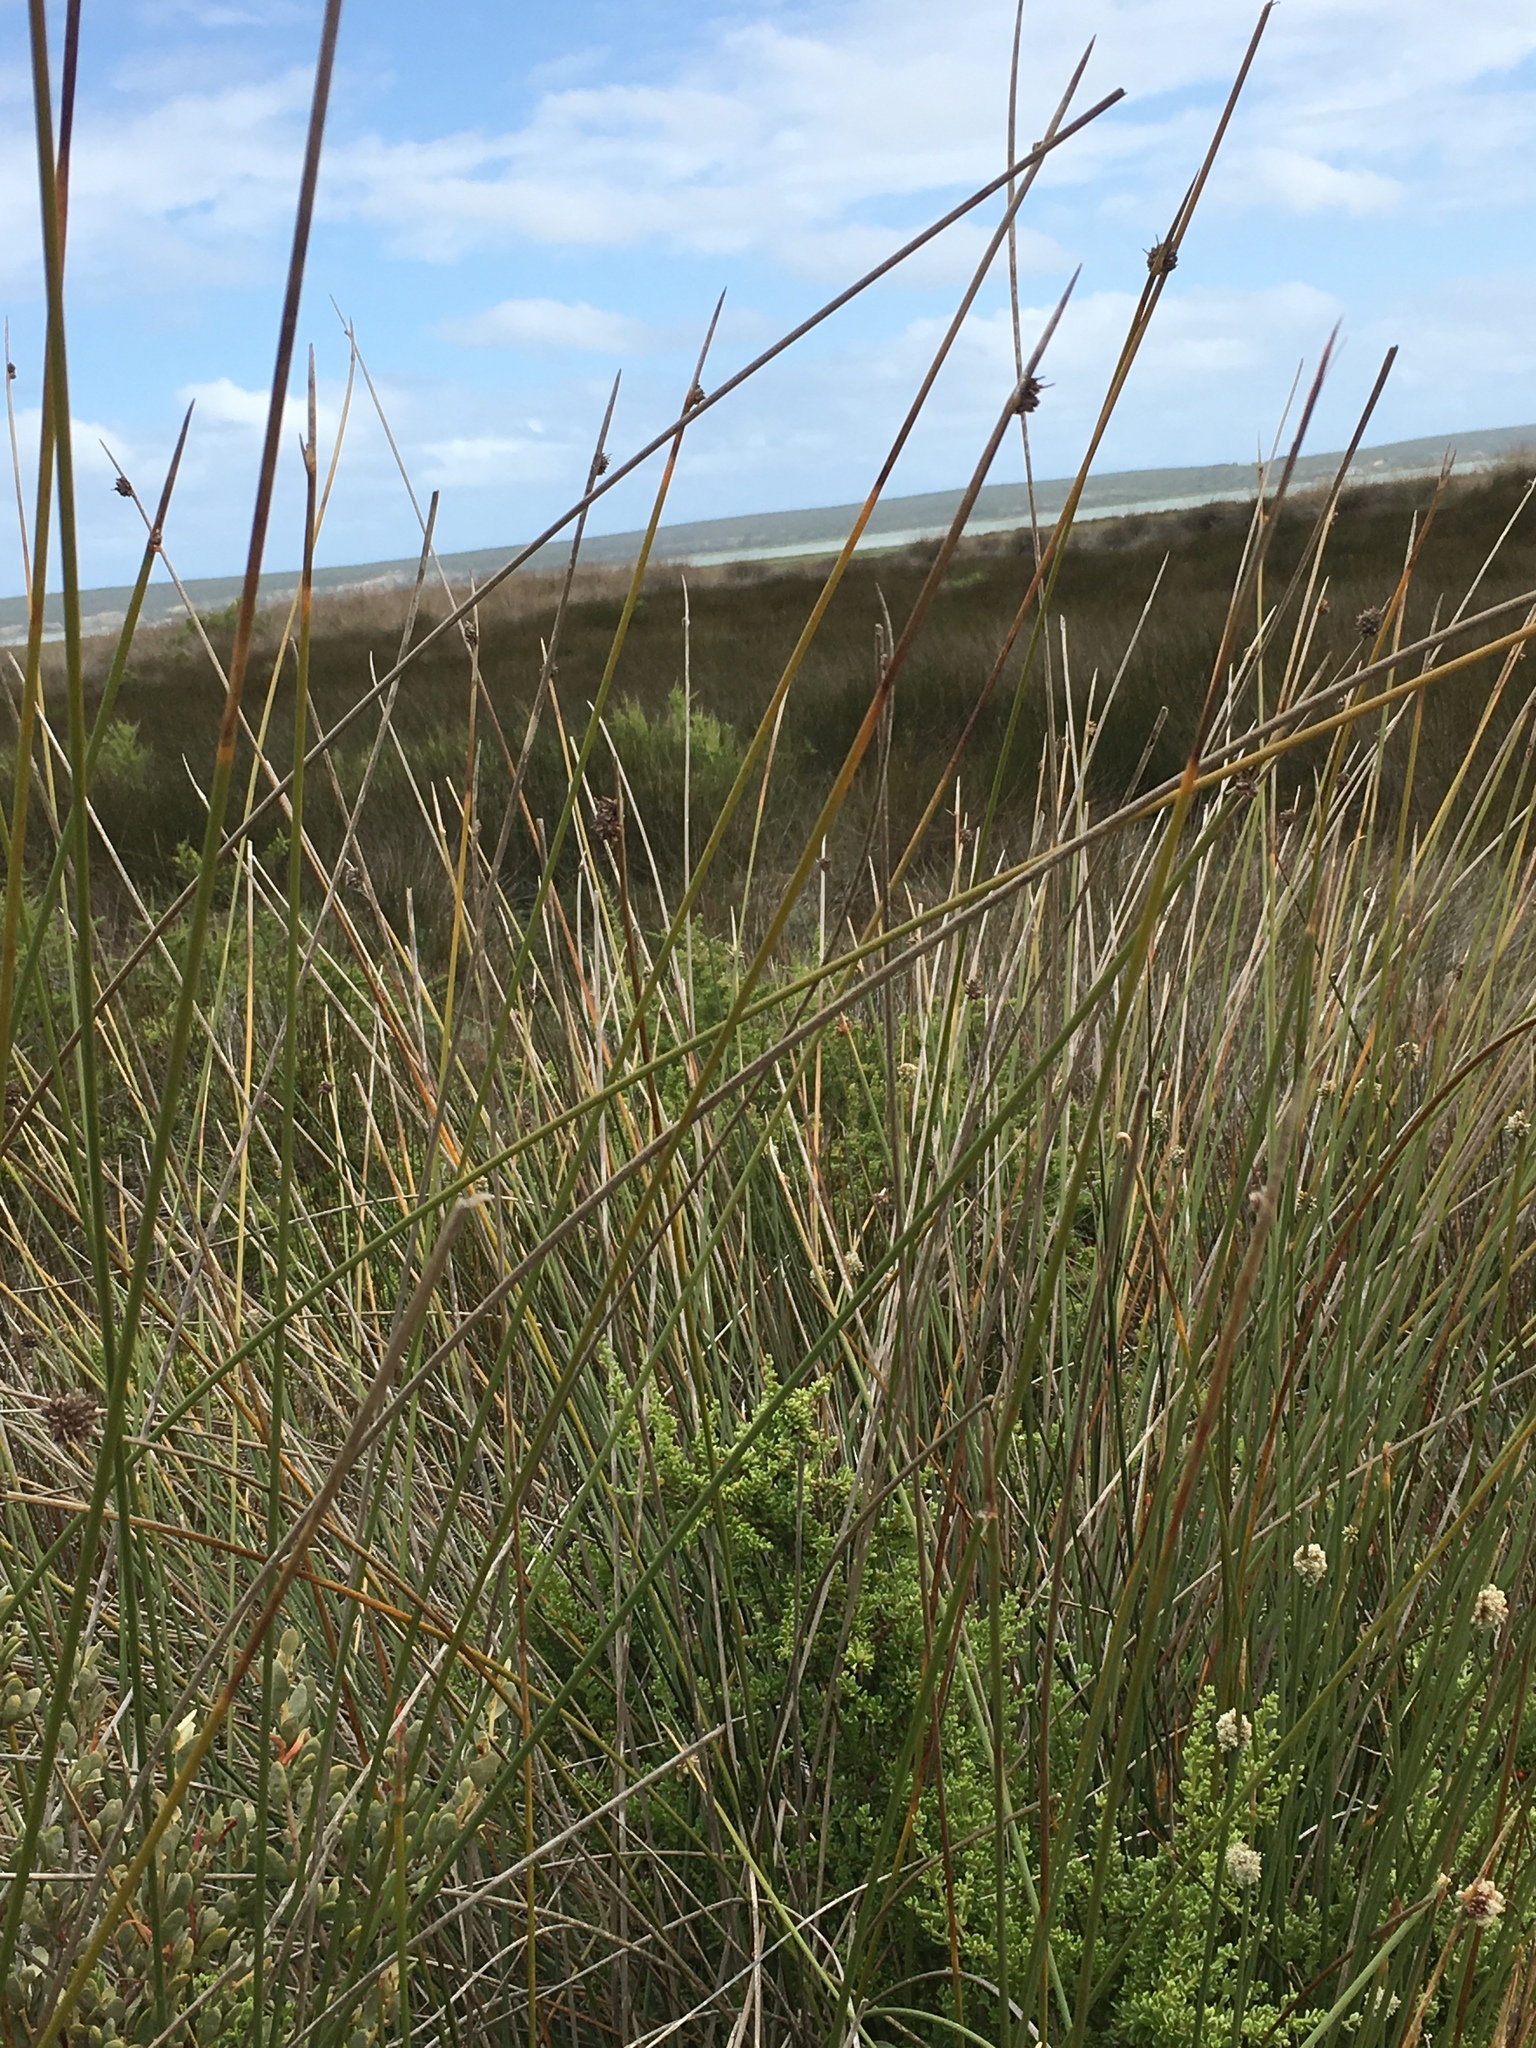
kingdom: Plantae
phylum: Tracheophyta
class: Liliopsida
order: Poales
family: Cyperaceae
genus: Ficinia
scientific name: Ficinia nodosa
